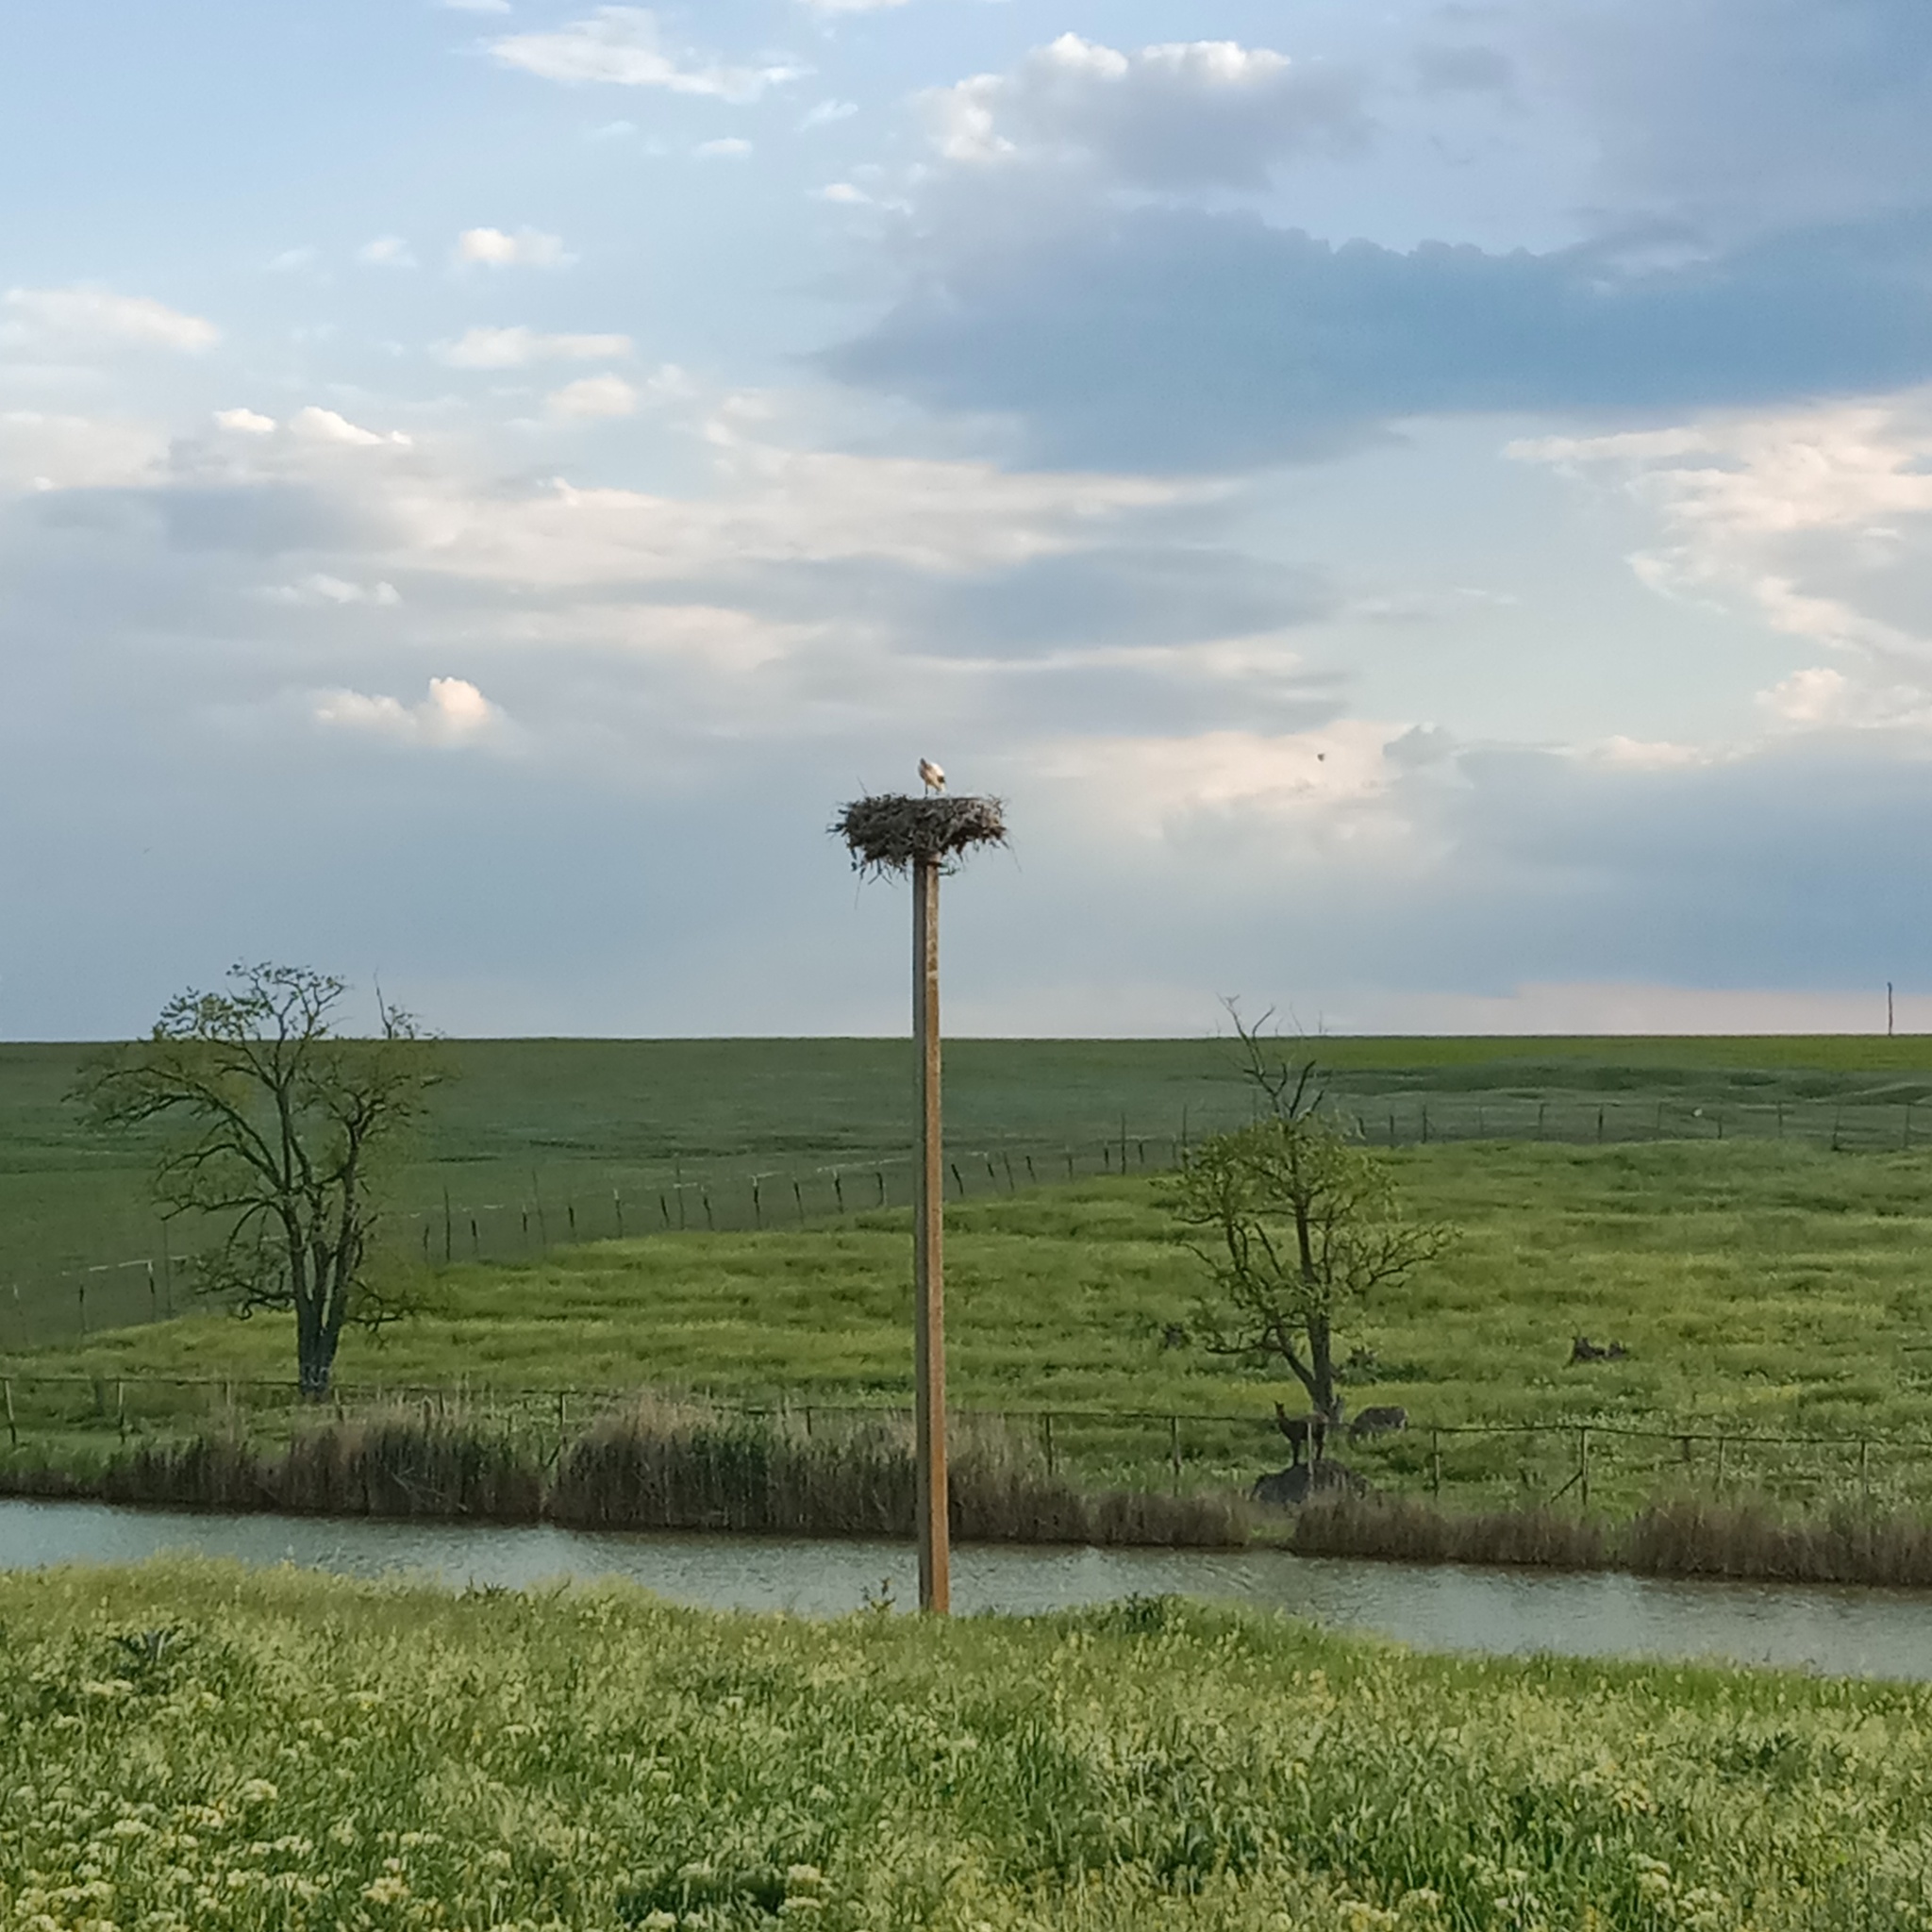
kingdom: Animalia
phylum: Chordata
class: Aves
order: Ciconiiformes
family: Ciconiidae
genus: Ciconia
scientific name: Ciconia ciconia
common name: White stork
